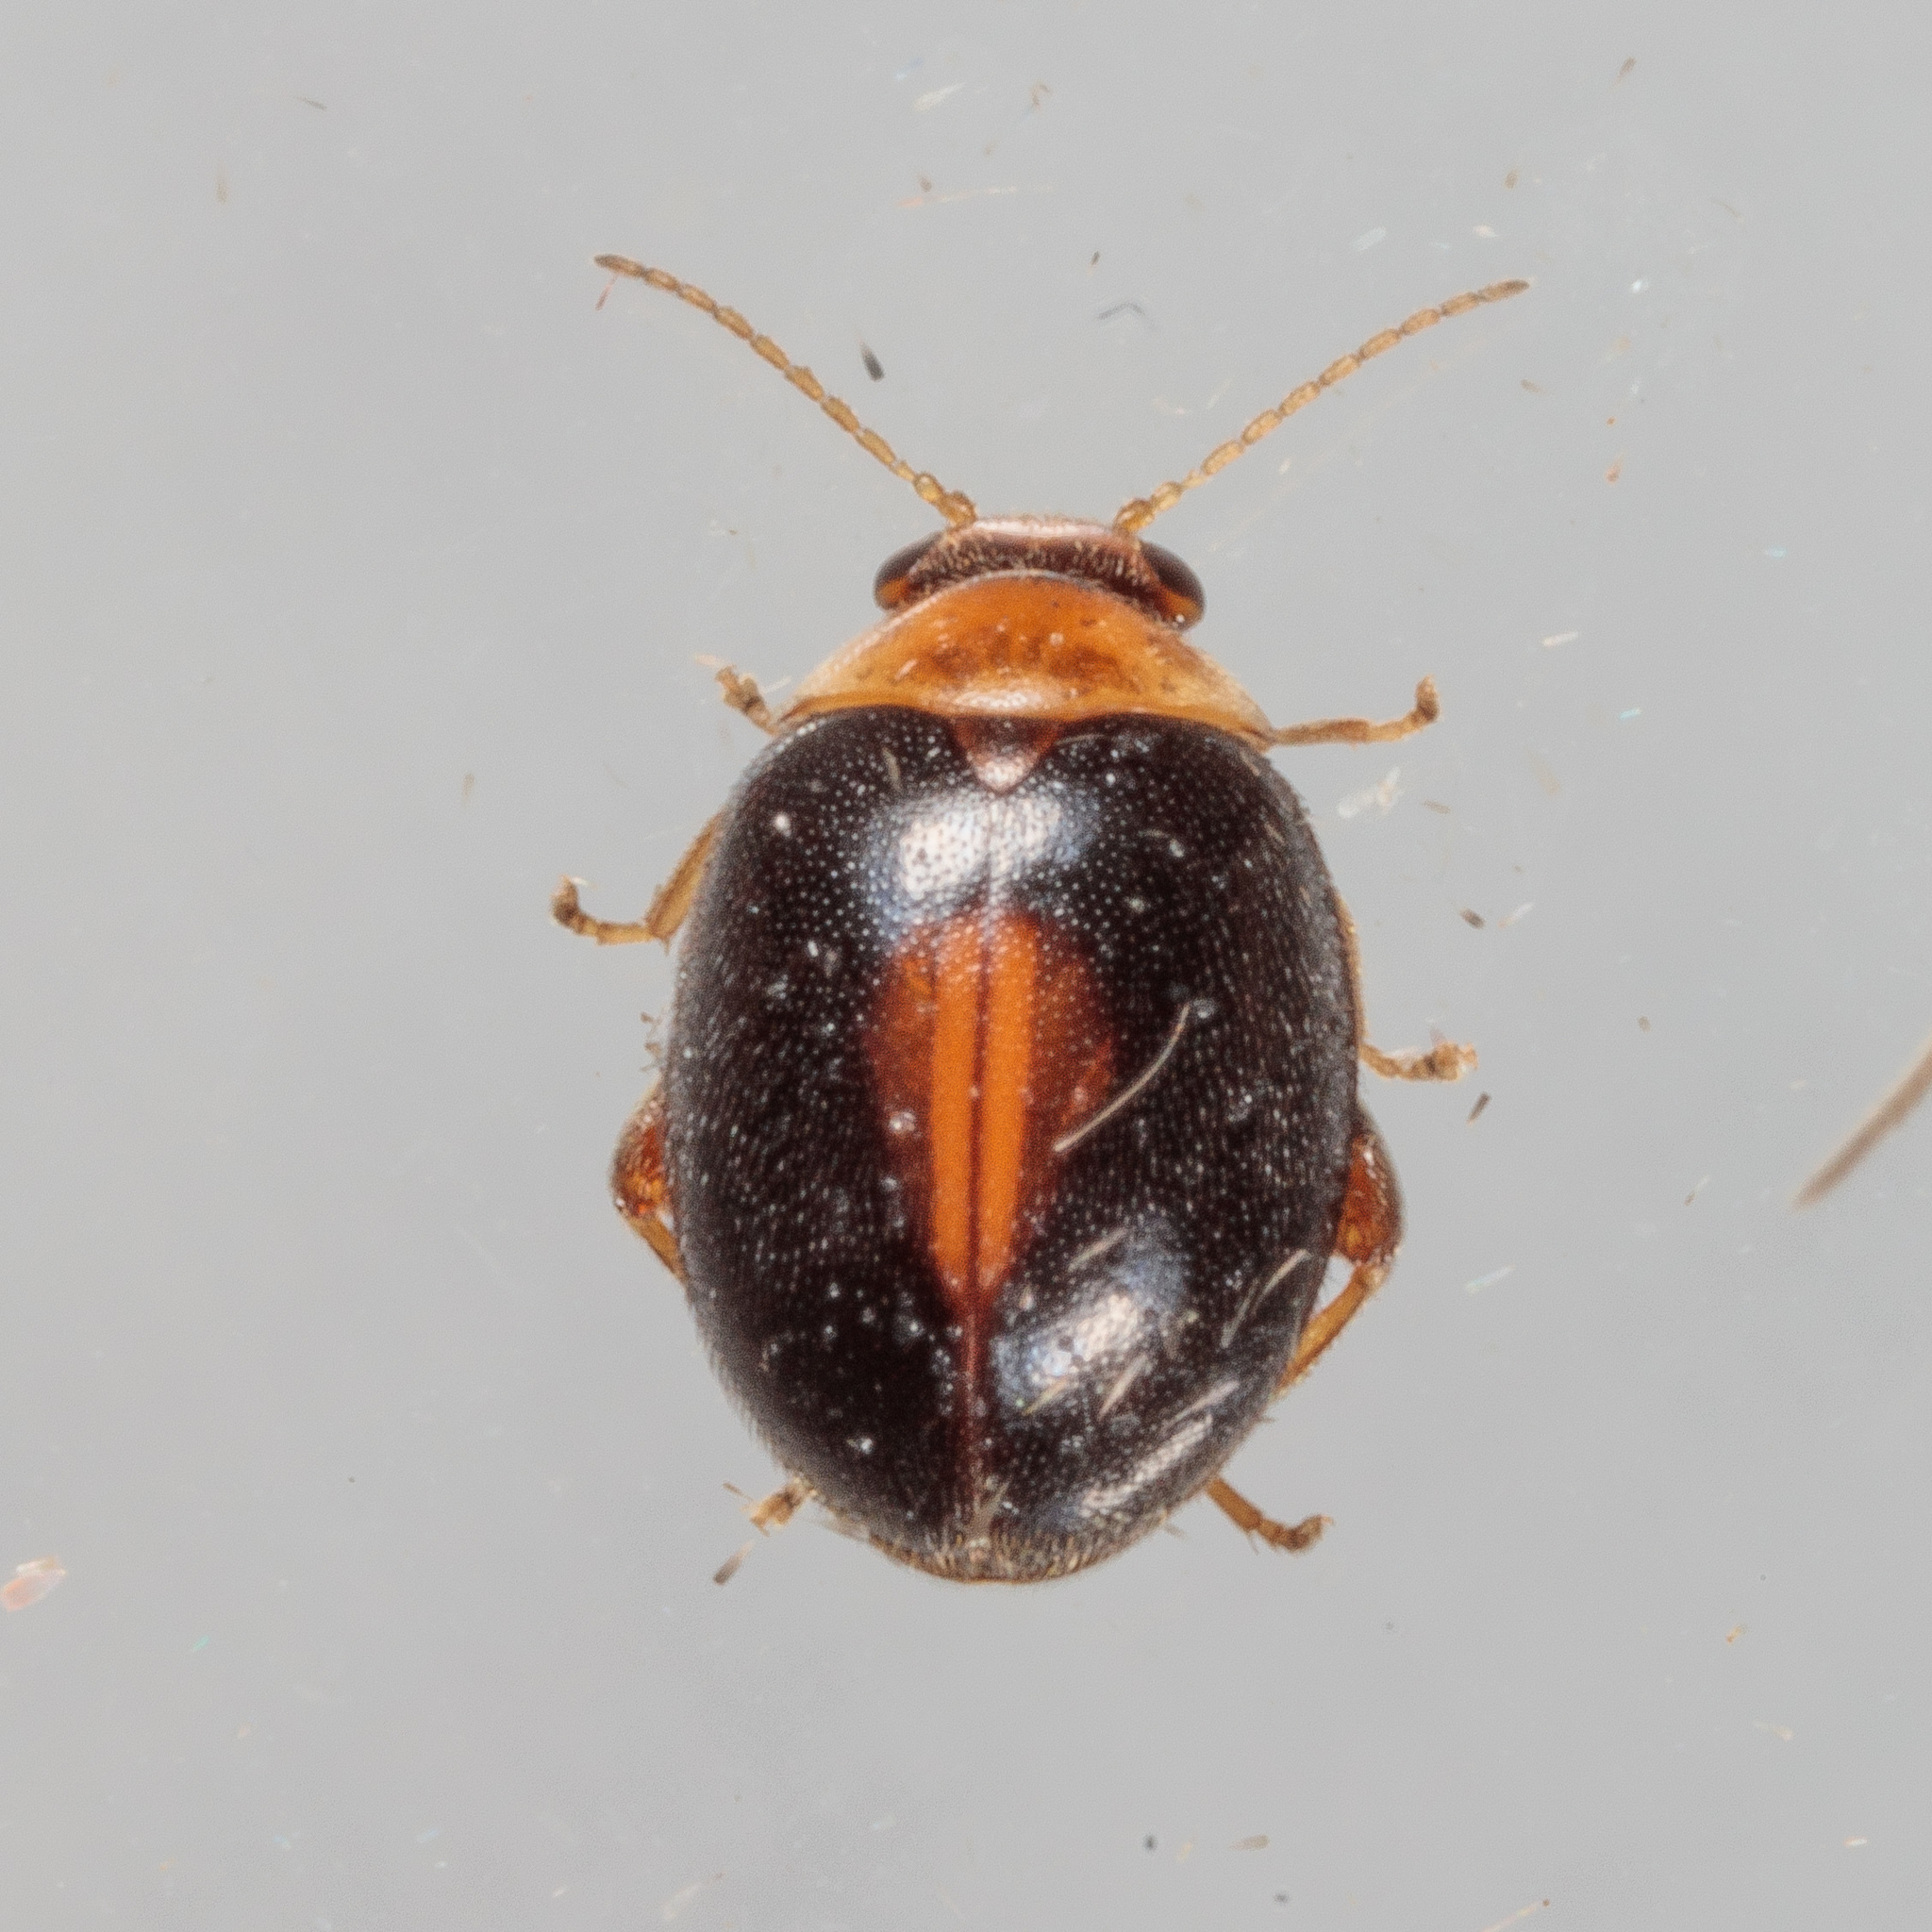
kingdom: Animalia
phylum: Arthropoda
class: Insecta
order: Coleoptera
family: Scirtidae
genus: Scirtes
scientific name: Scirtes orbiculatus
